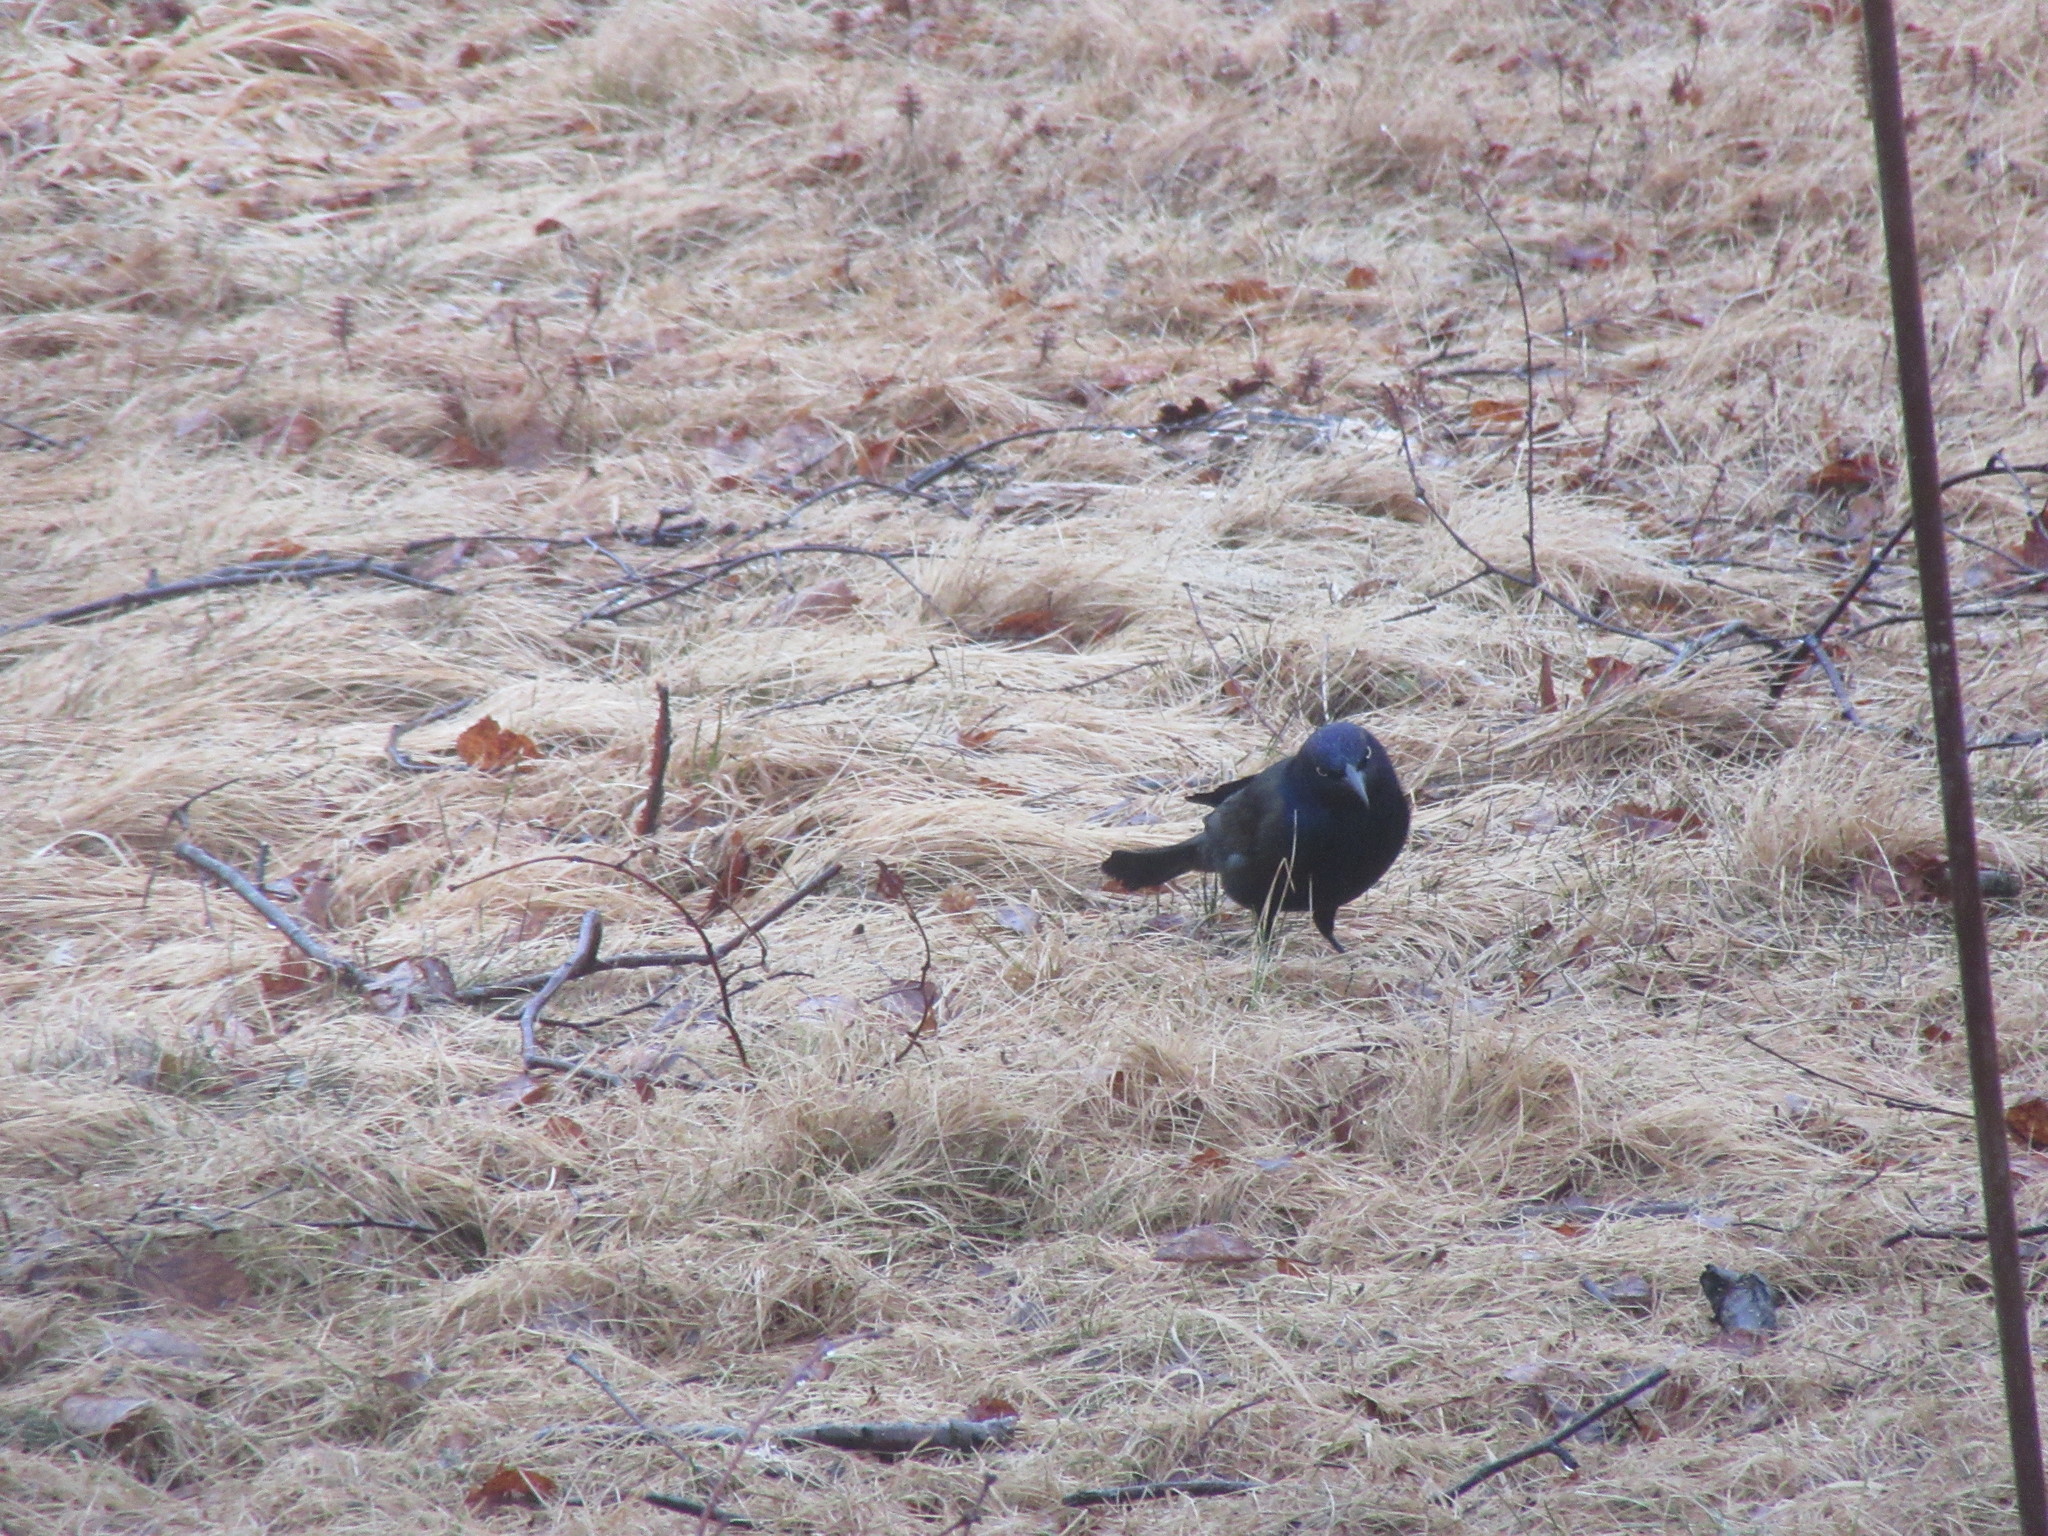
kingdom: Animalia
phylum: Chordata
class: Aves
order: Passeriformes
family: Icteridae
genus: Quiscalus
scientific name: Quiscalus quiscula
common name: Common grackle
